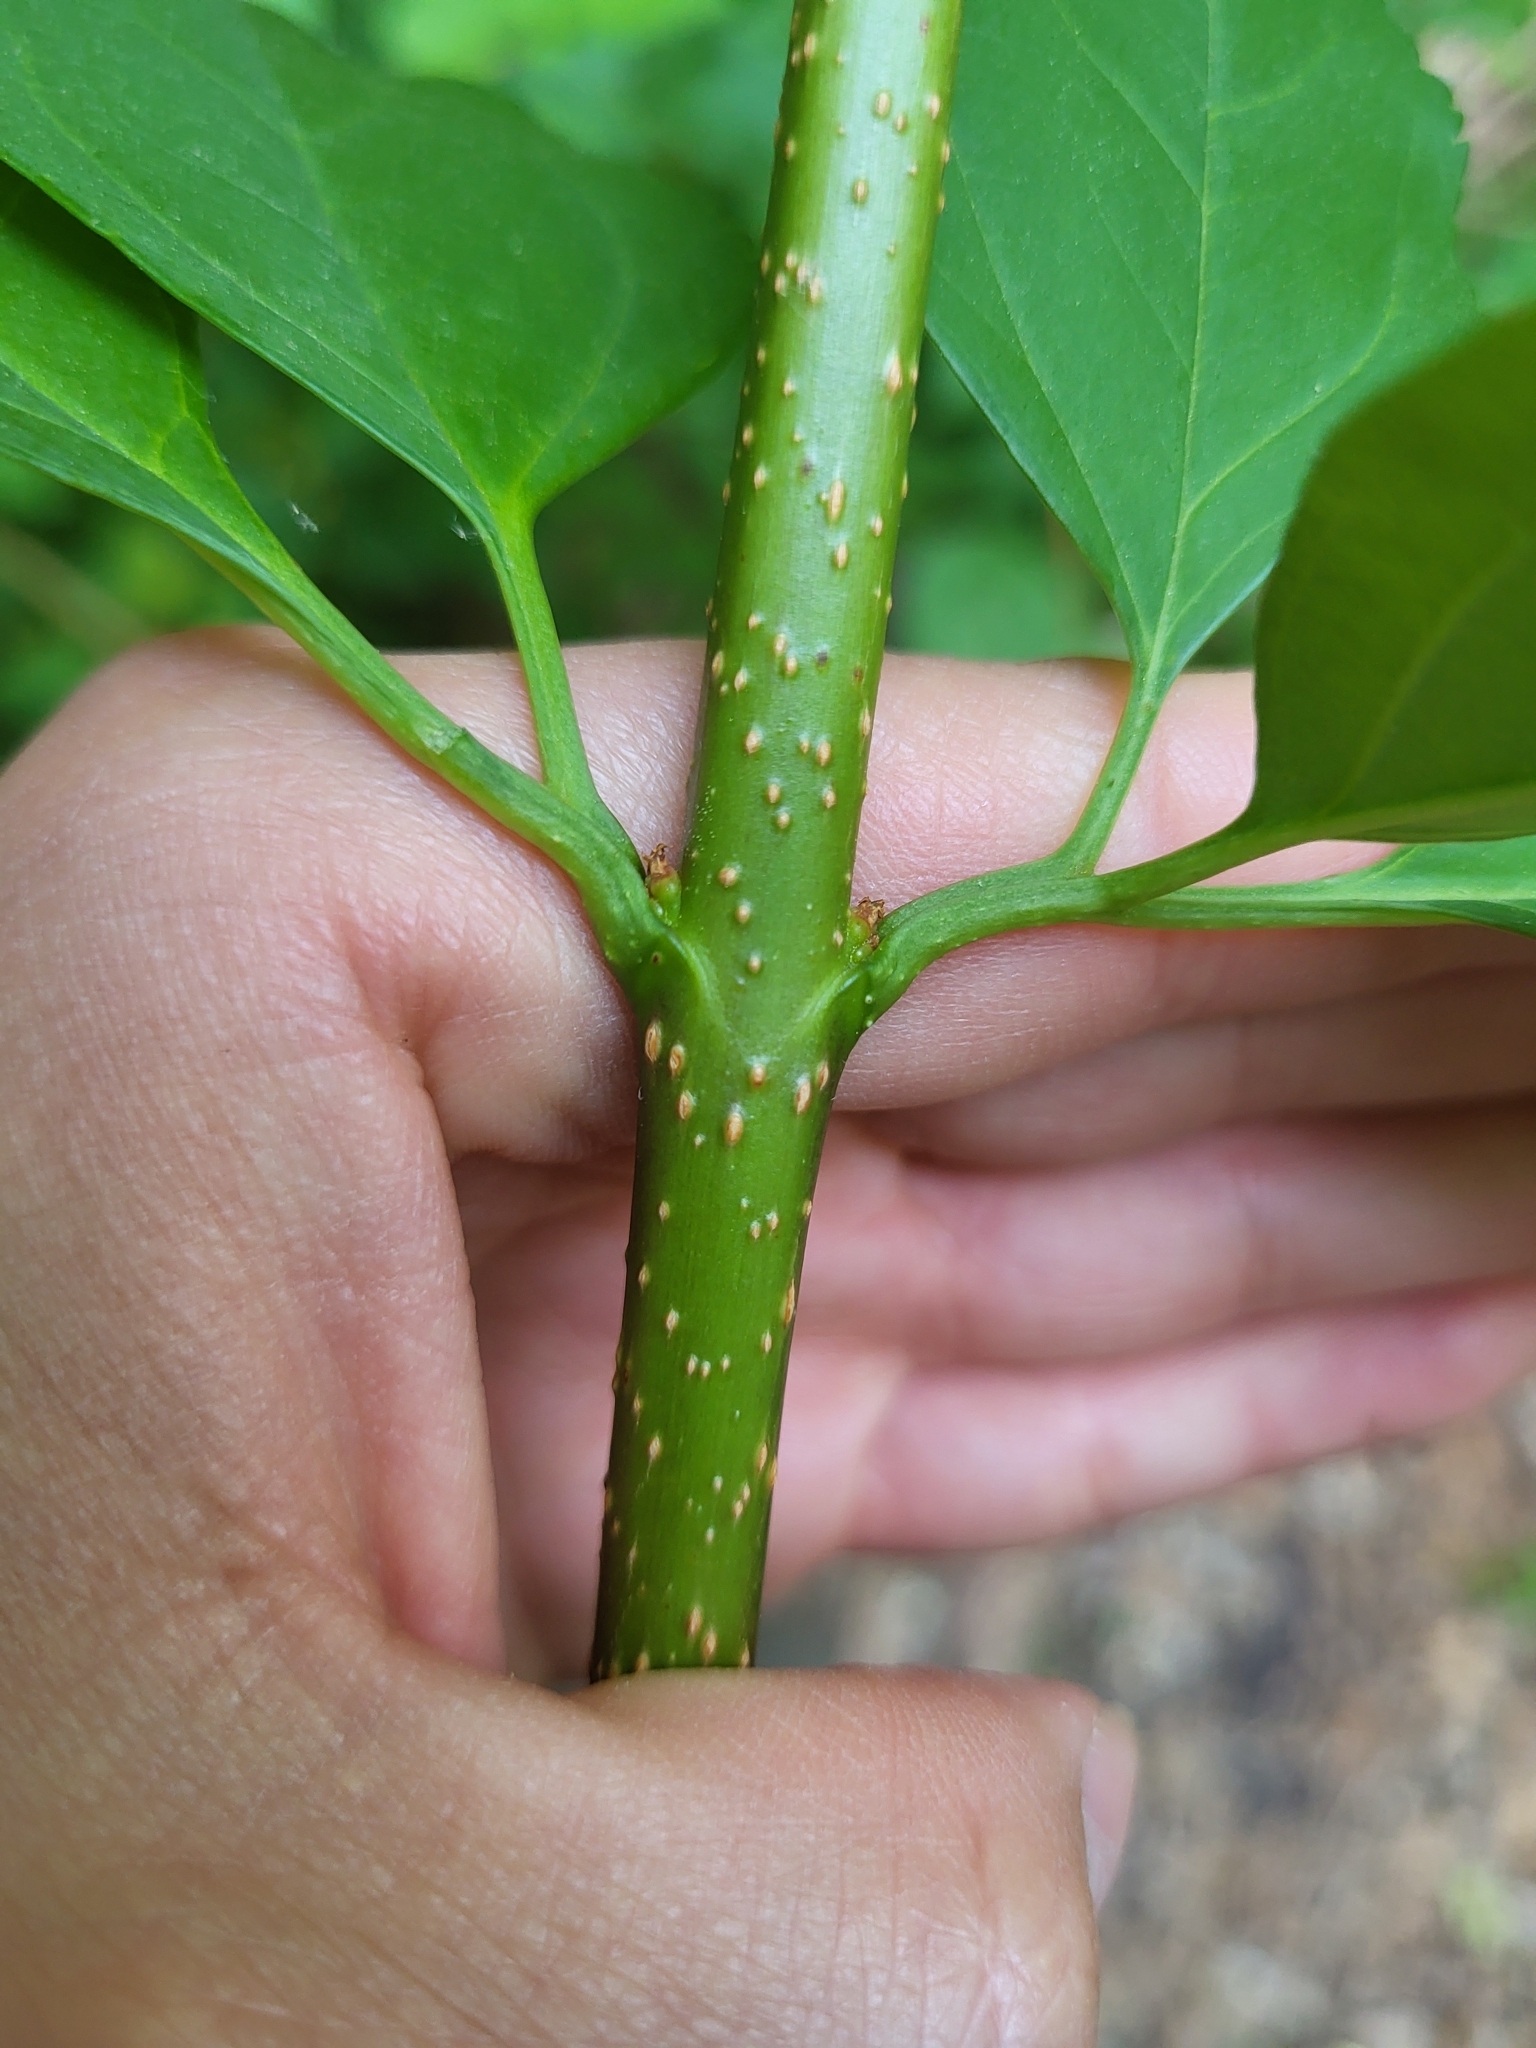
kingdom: Plantae
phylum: Tracheophyta
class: Magnoliopsida
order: Lamiales
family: Oleaceae
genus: Forsythia
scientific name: Forsythia suspensa
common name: Weeping forsythia
